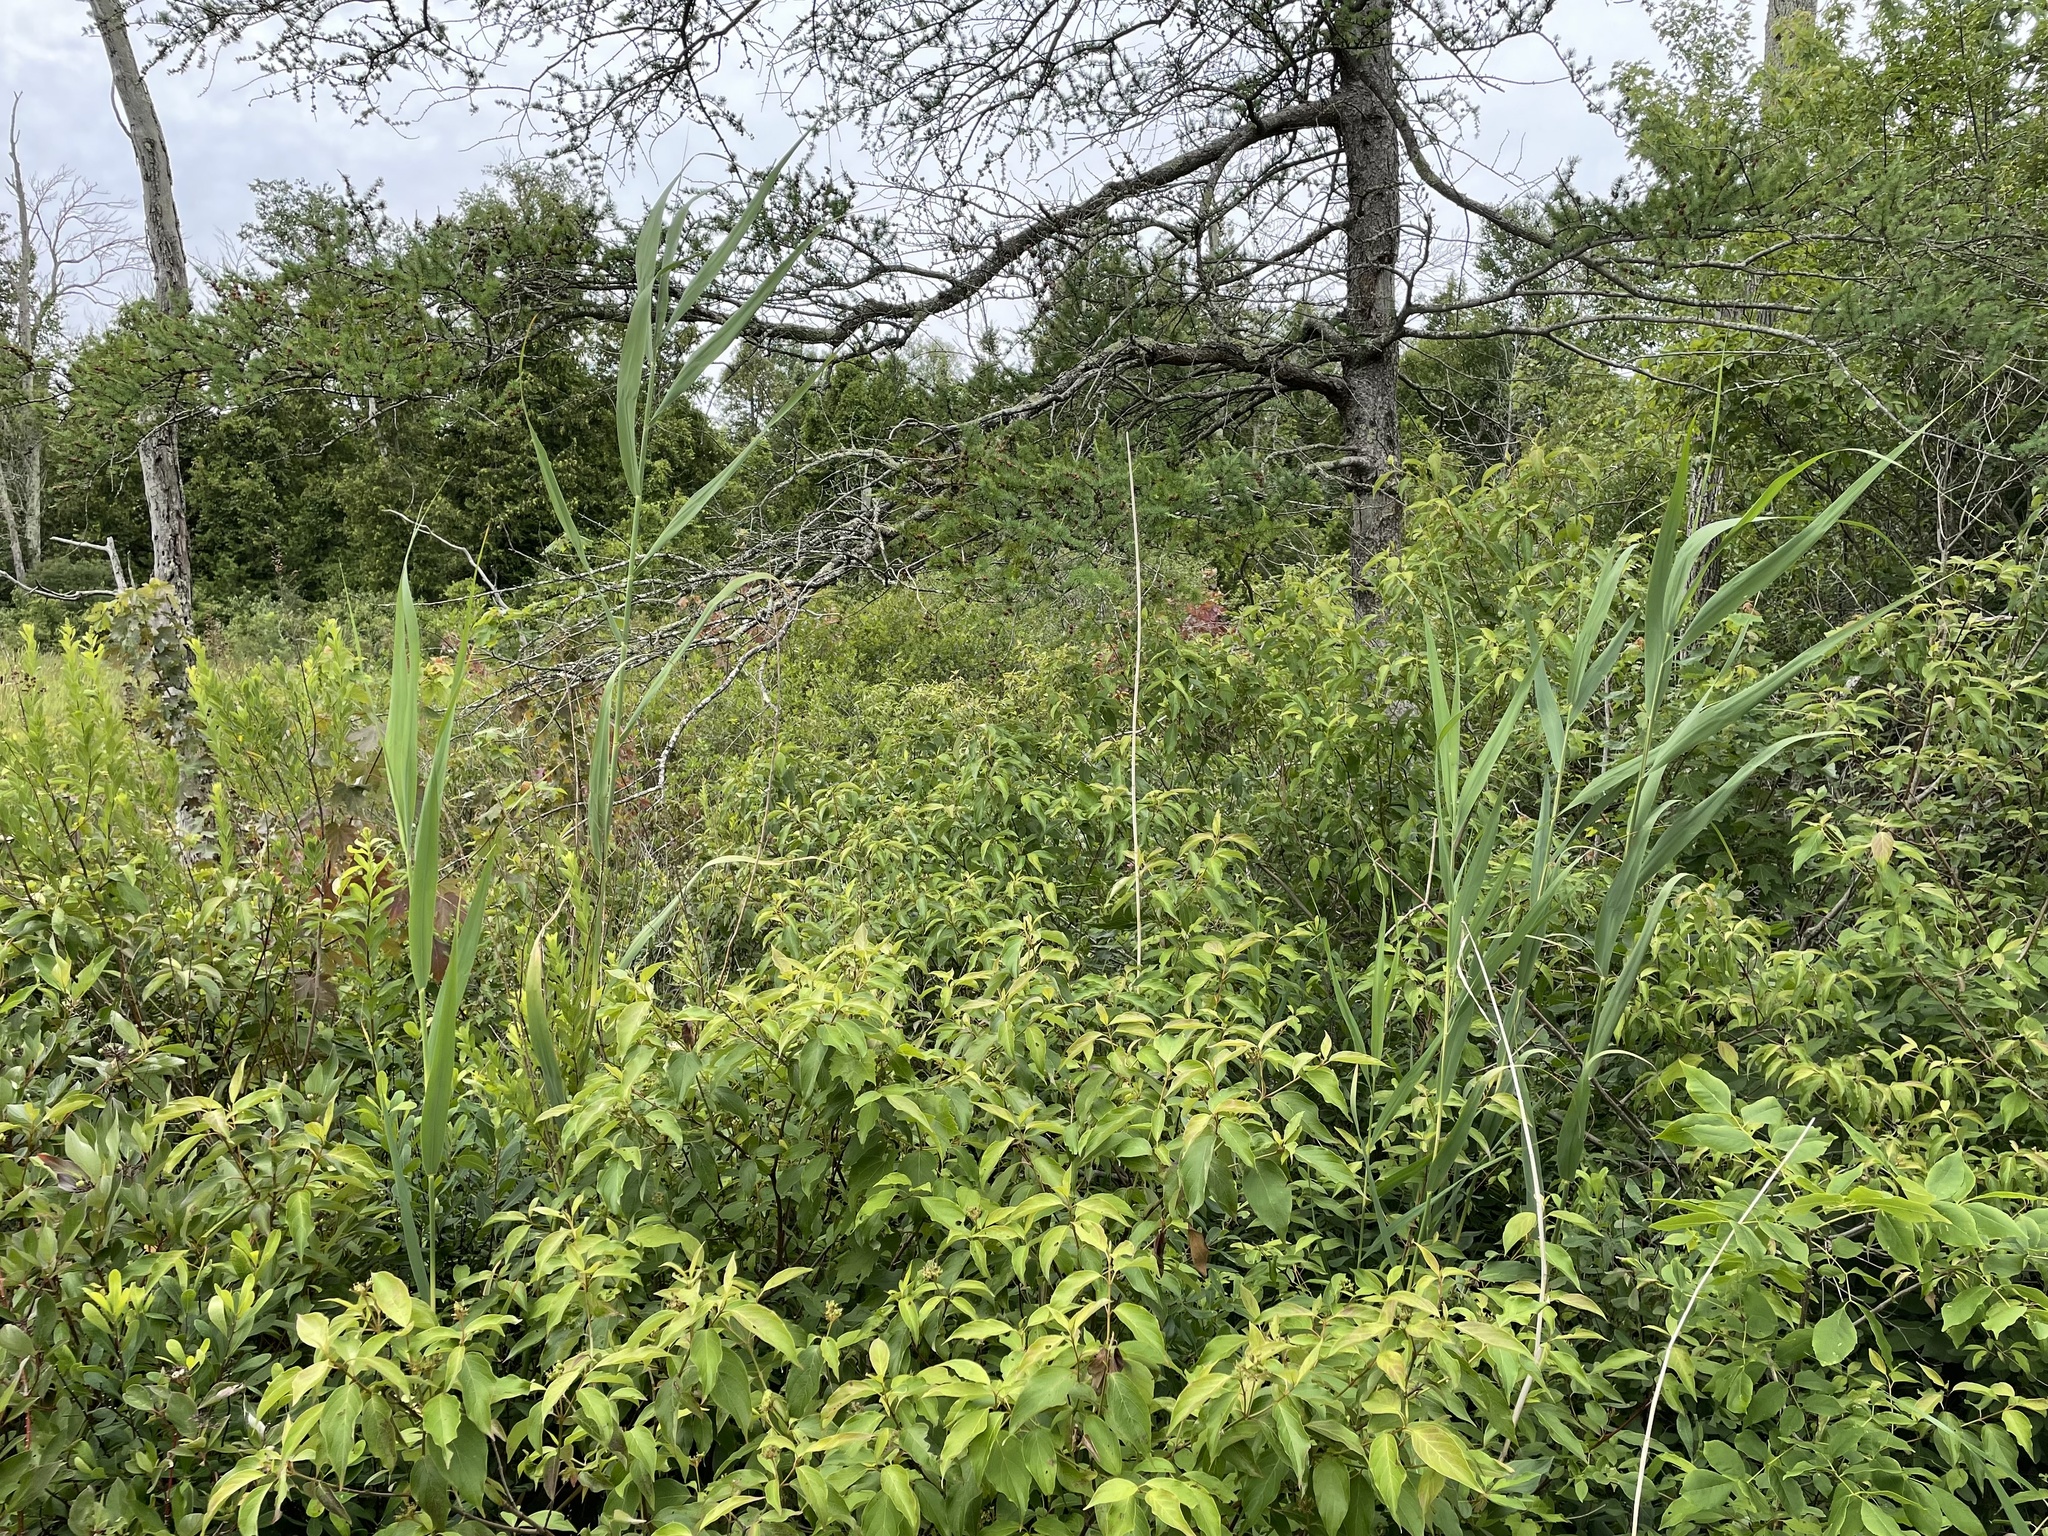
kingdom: Plantae
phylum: Tracheophyta
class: Liliopsida
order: Poales
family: Poaceae
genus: Phragmites
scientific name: Phragmites australis
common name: Common reed
